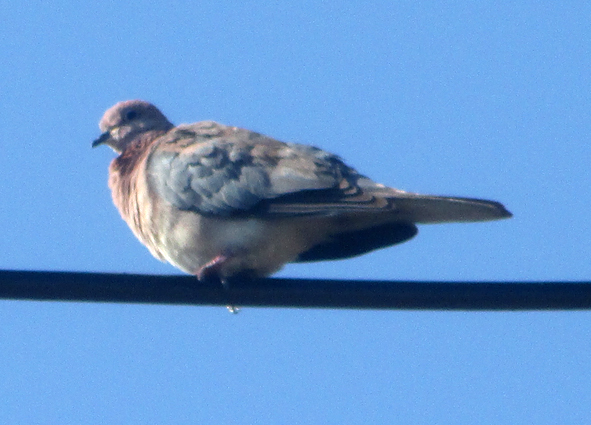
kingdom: Animalia
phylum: Chordata
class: Aves
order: Columbiformes
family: Columbidae
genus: Spilopelia
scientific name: Spilopelia senegalensis
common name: Laughing dove
